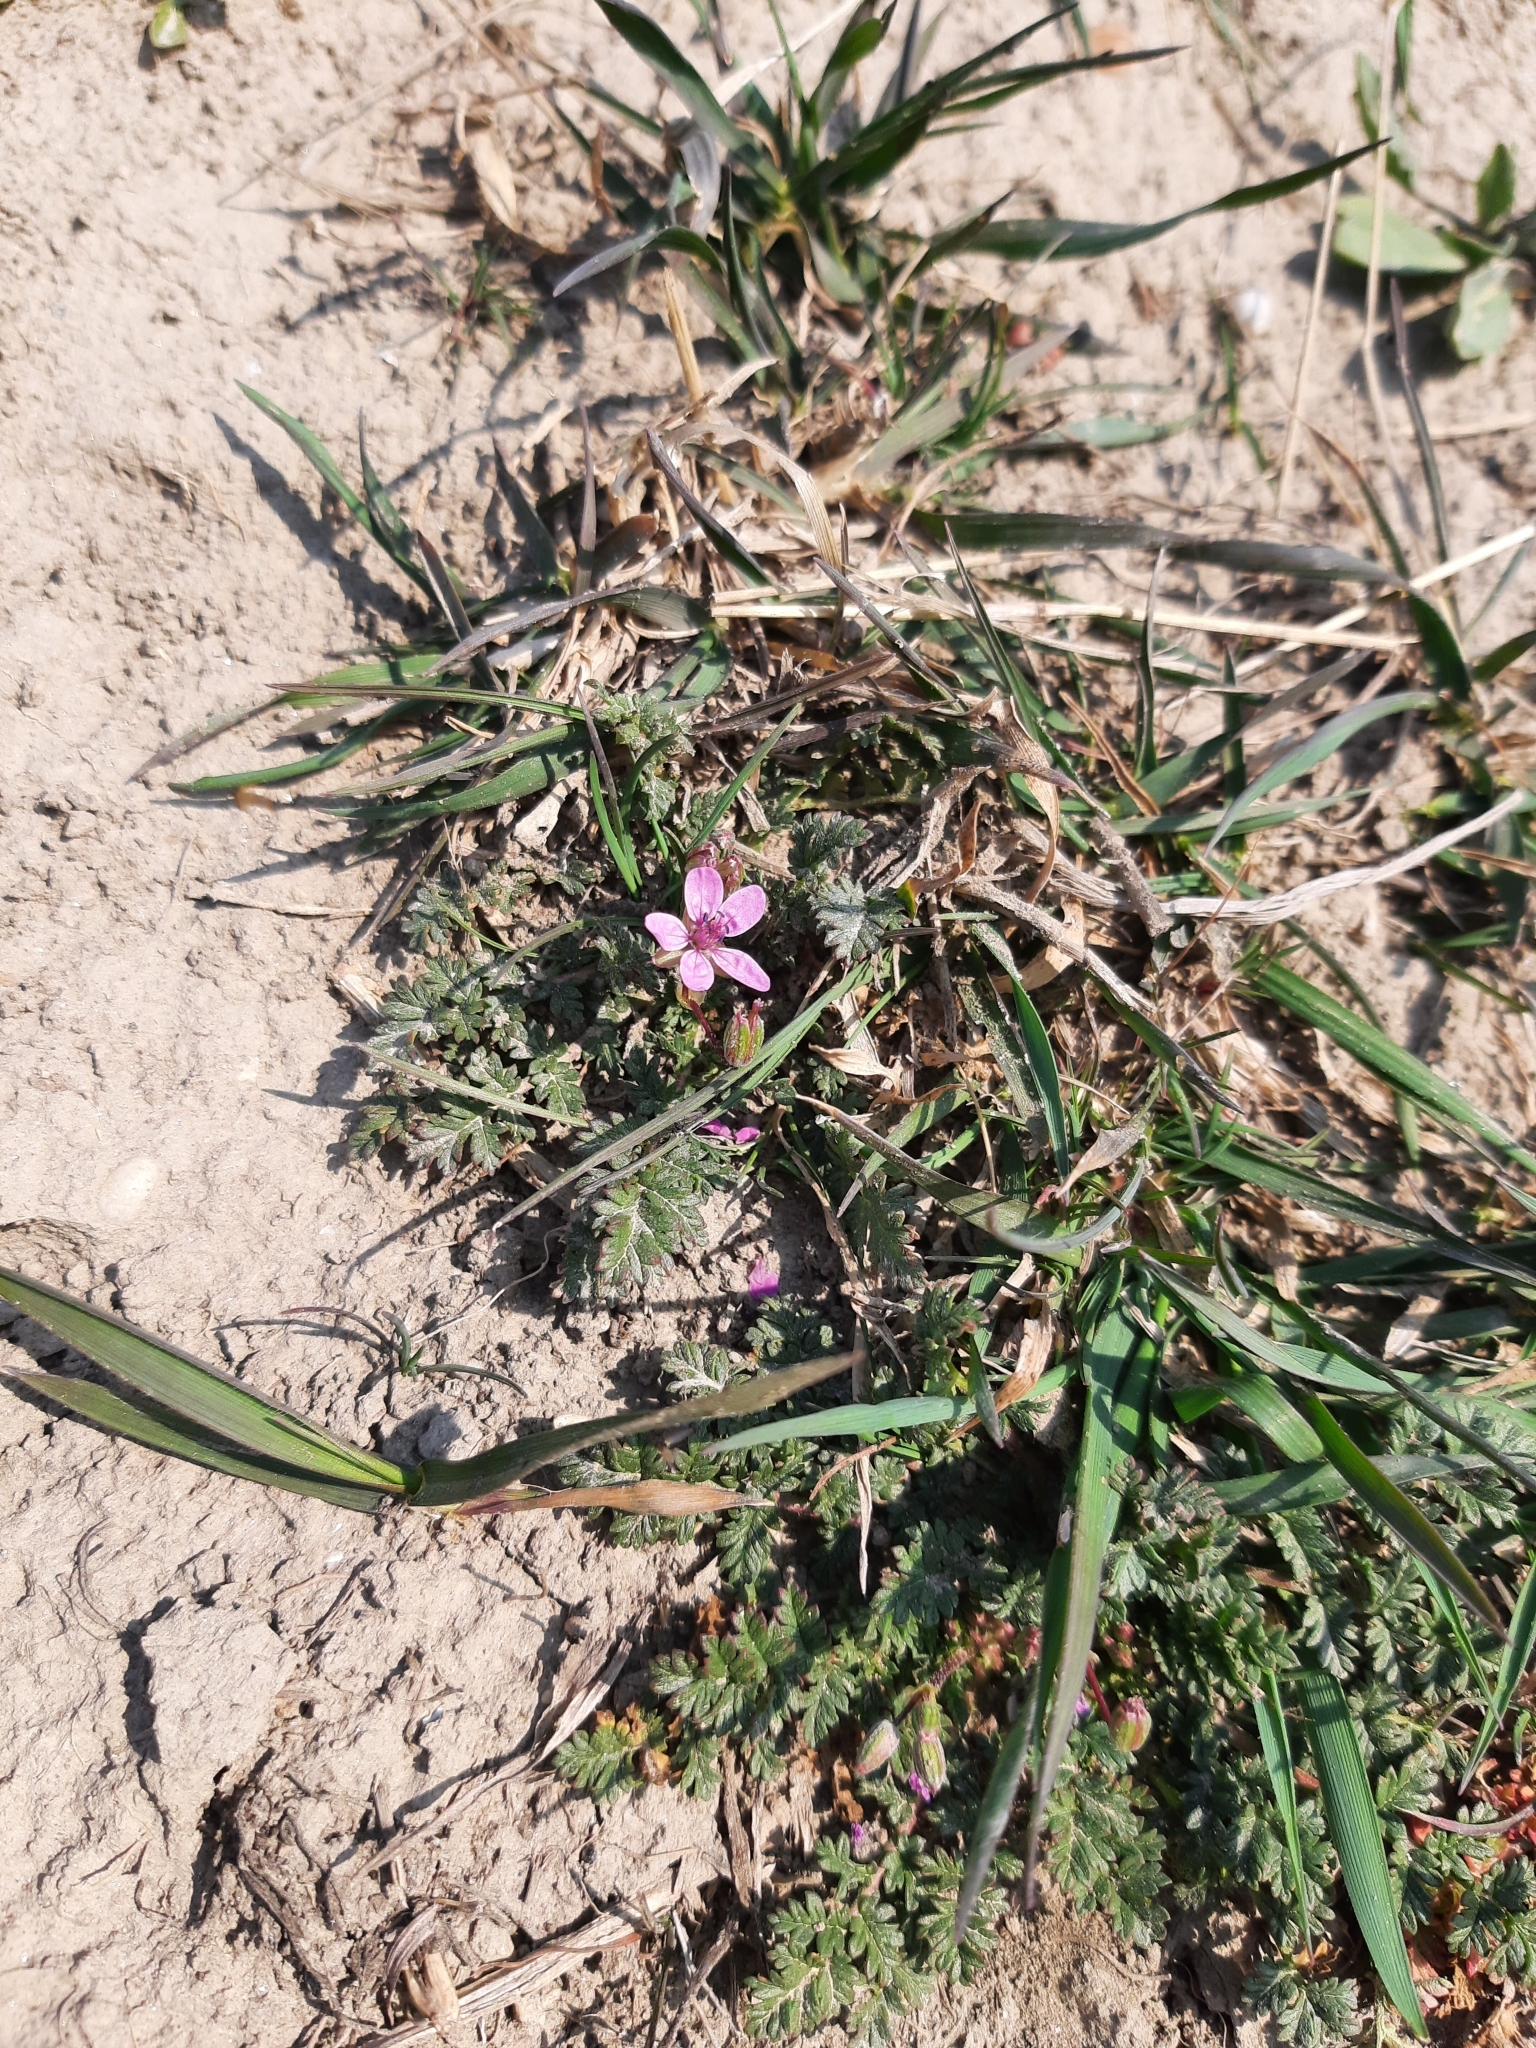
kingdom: Plantae
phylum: Tracheophyta
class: Magnoliopsida
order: Geraniales
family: Geraniaceae
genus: Erodium
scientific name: Erodium cicutarium
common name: Common stork's-bill
